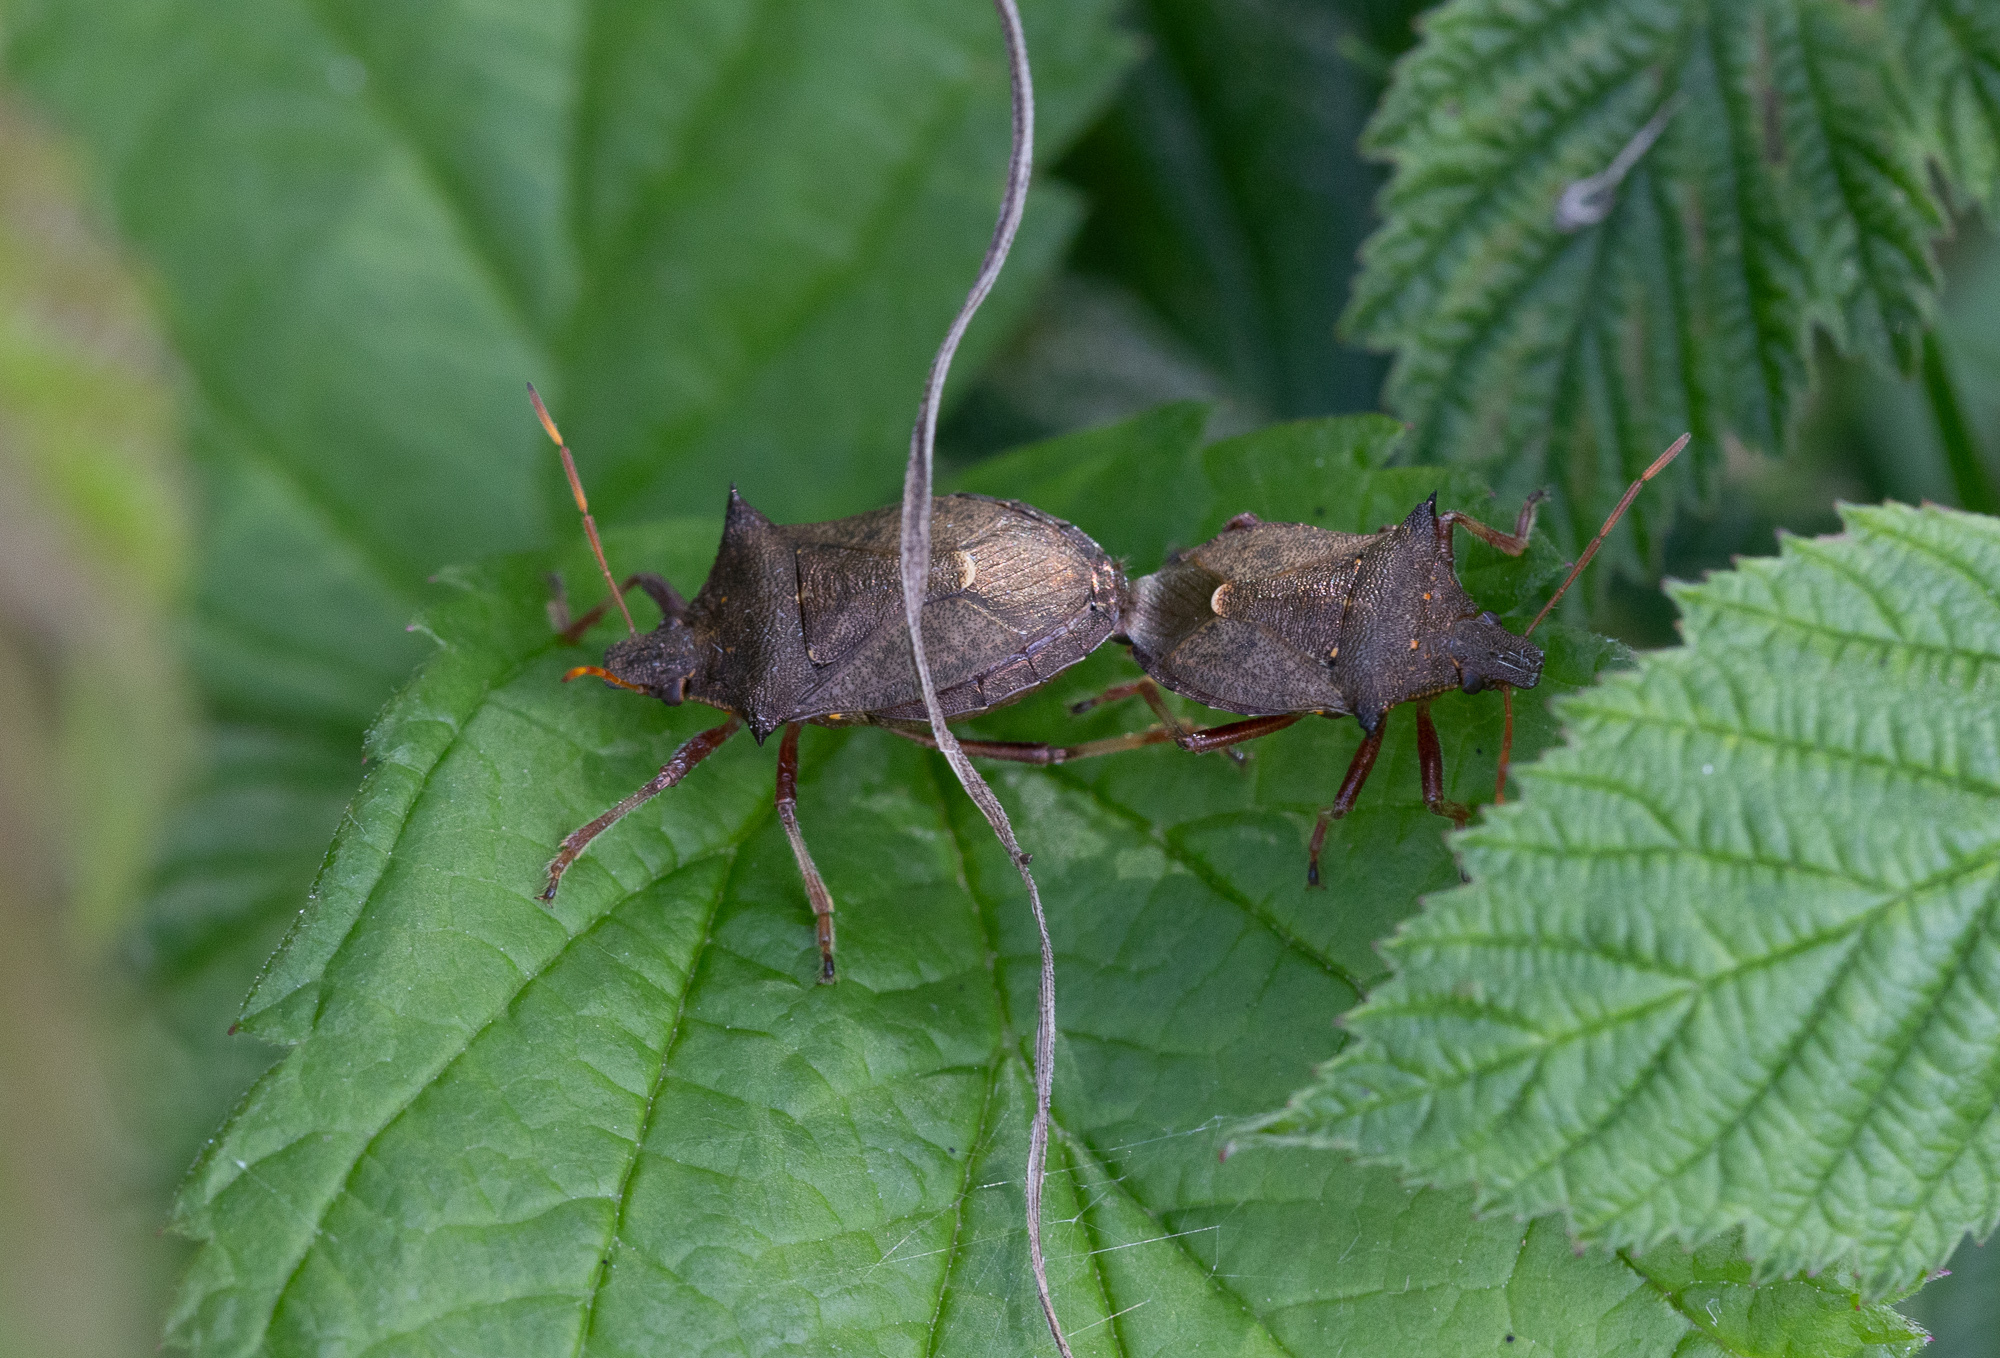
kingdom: Animalia
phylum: Arthropoda
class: Insecta
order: Hemiptera
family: Pentatomidae
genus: Picromerus
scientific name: Picromerus bidens
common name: Spiked shieldbug
